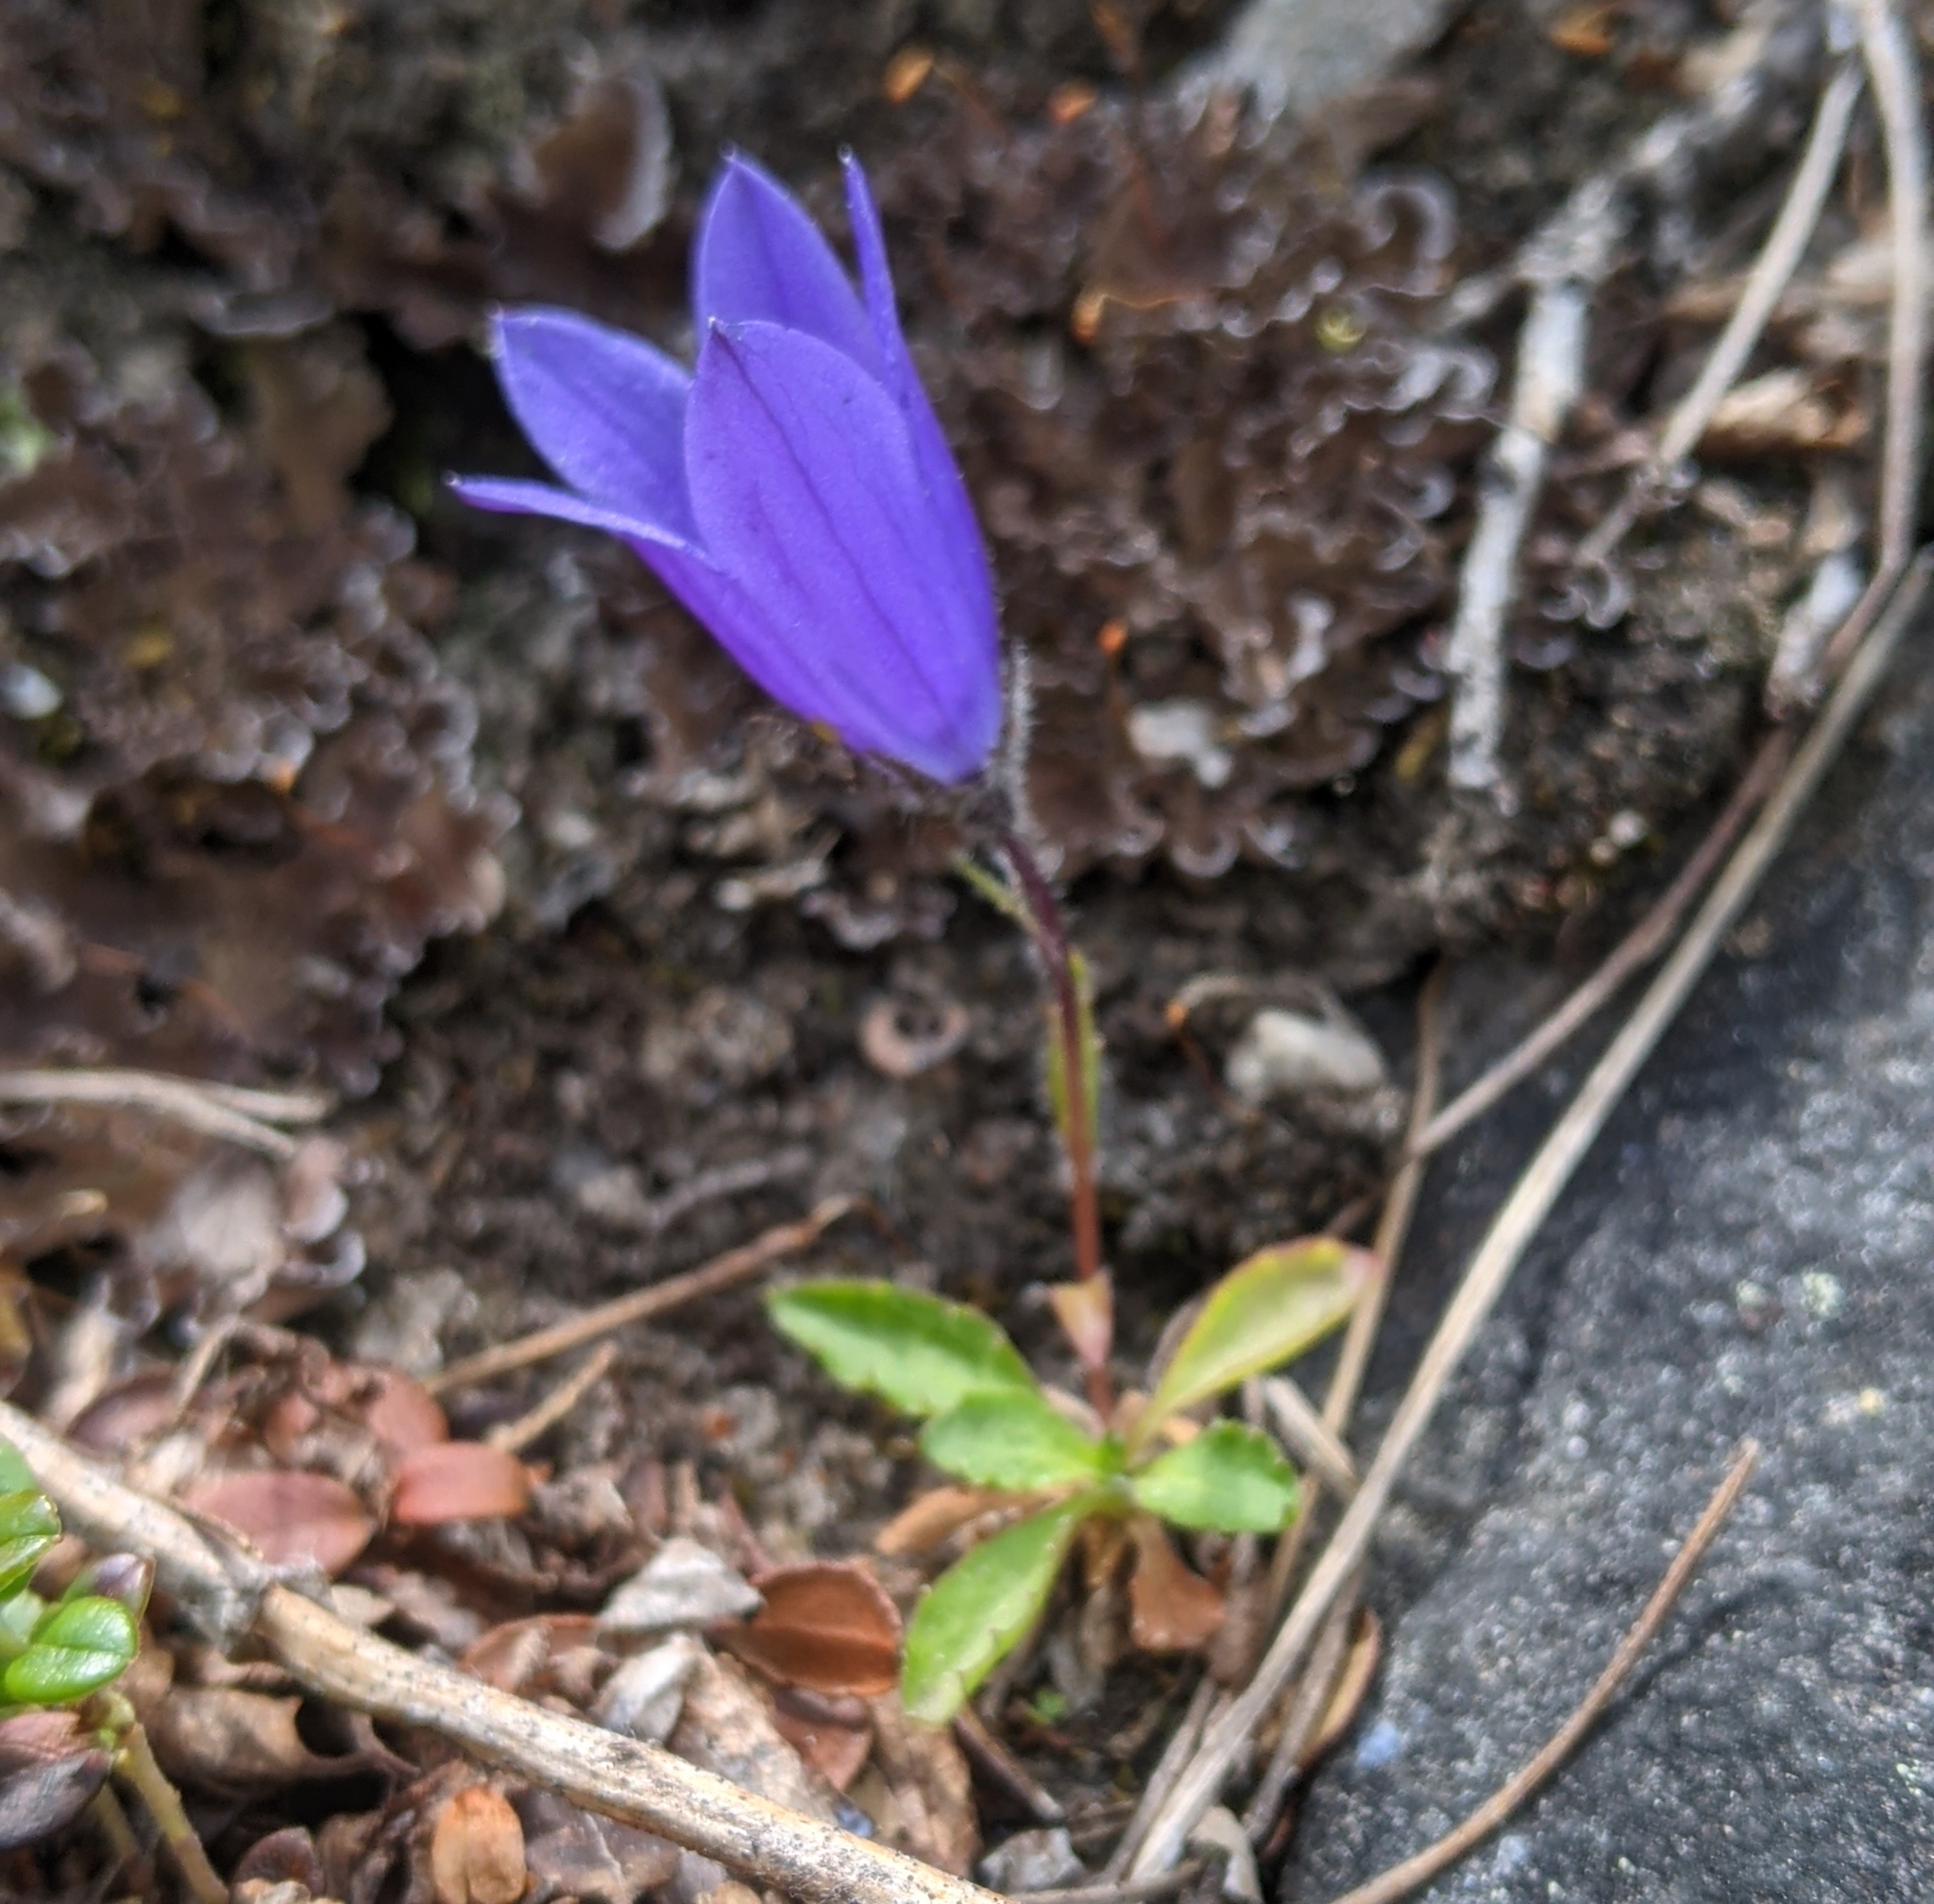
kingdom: Plantae
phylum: Tracheophyta
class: Magnoliopsida
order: Asterales
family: Campanulaceae
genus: Campanula
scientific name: Campanula lasiocarpa
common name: Mountain harebell
